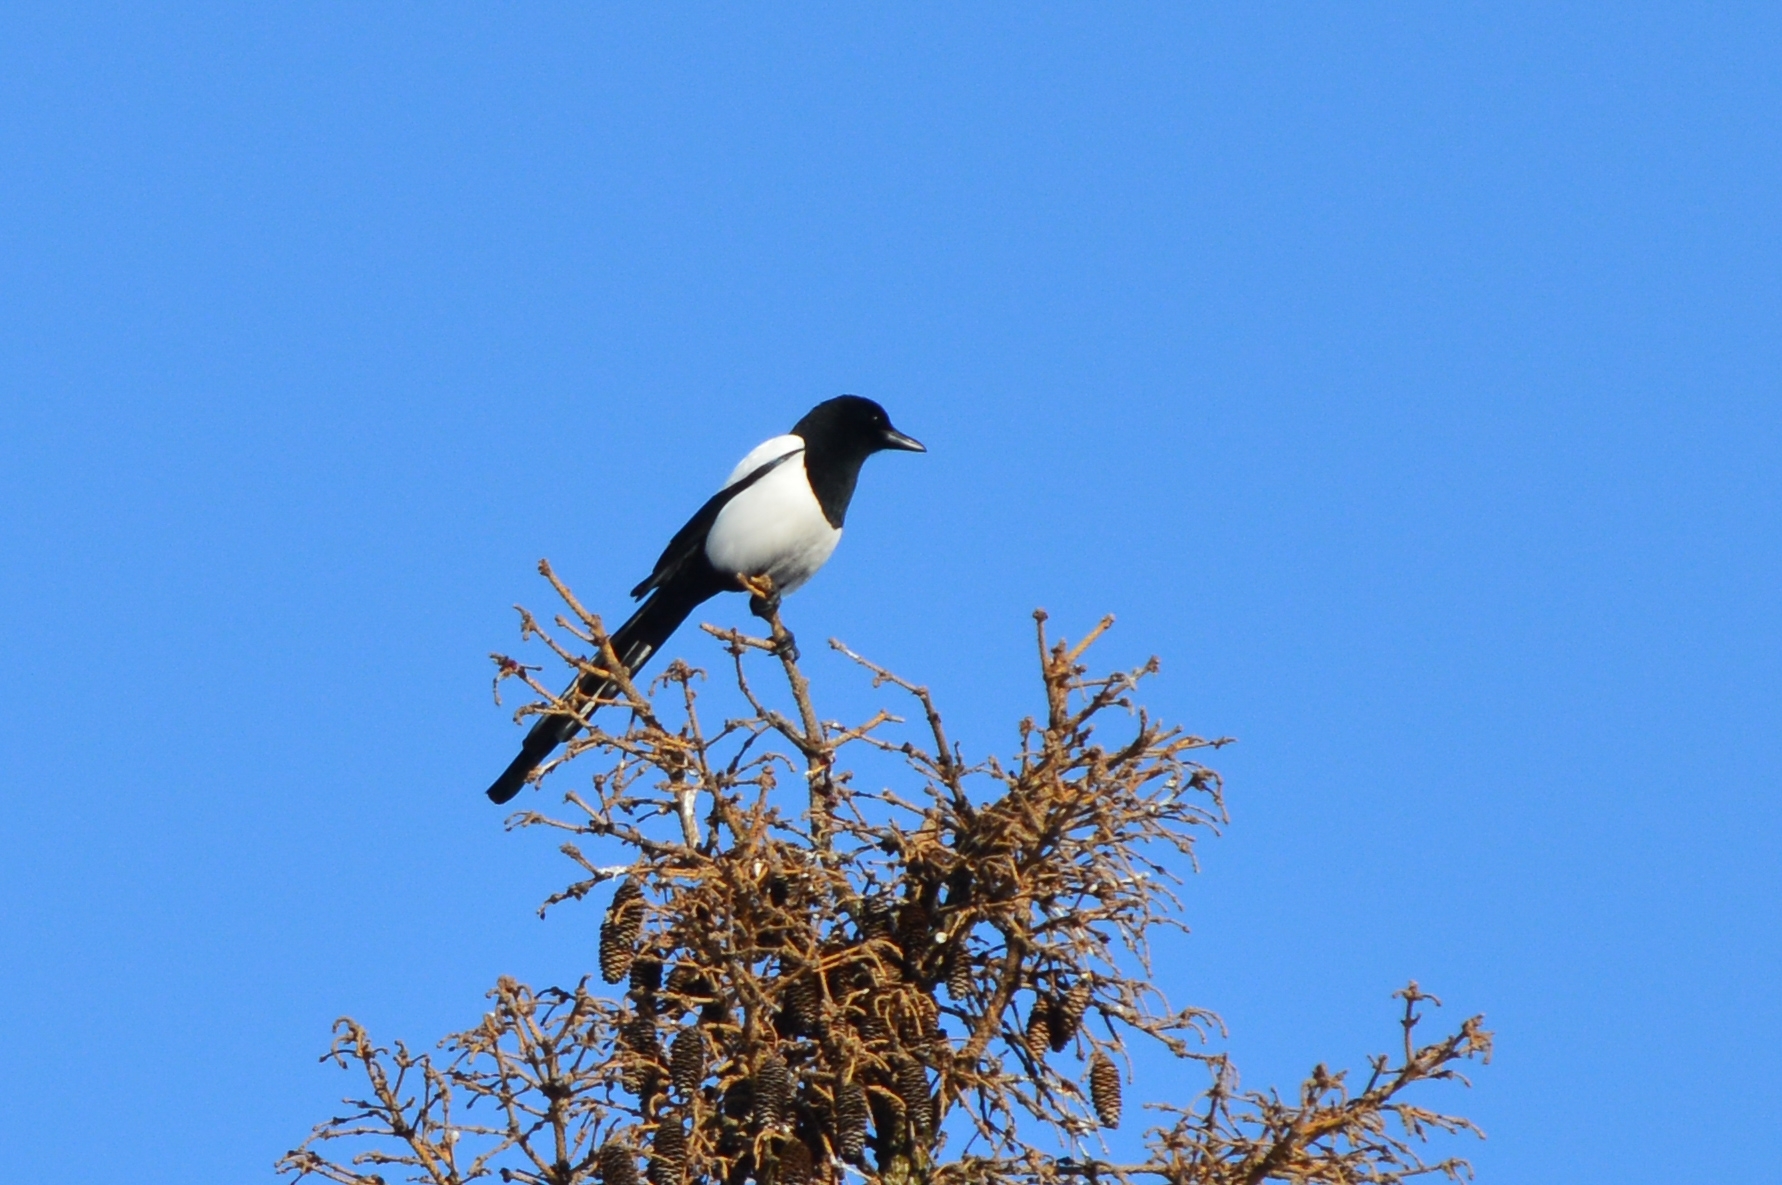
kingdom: Animalia
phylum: Chordata
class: Aves
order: Passeriformes
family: Corvidae
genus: Pica
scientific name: Pica pica
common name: Eurasian magpie
